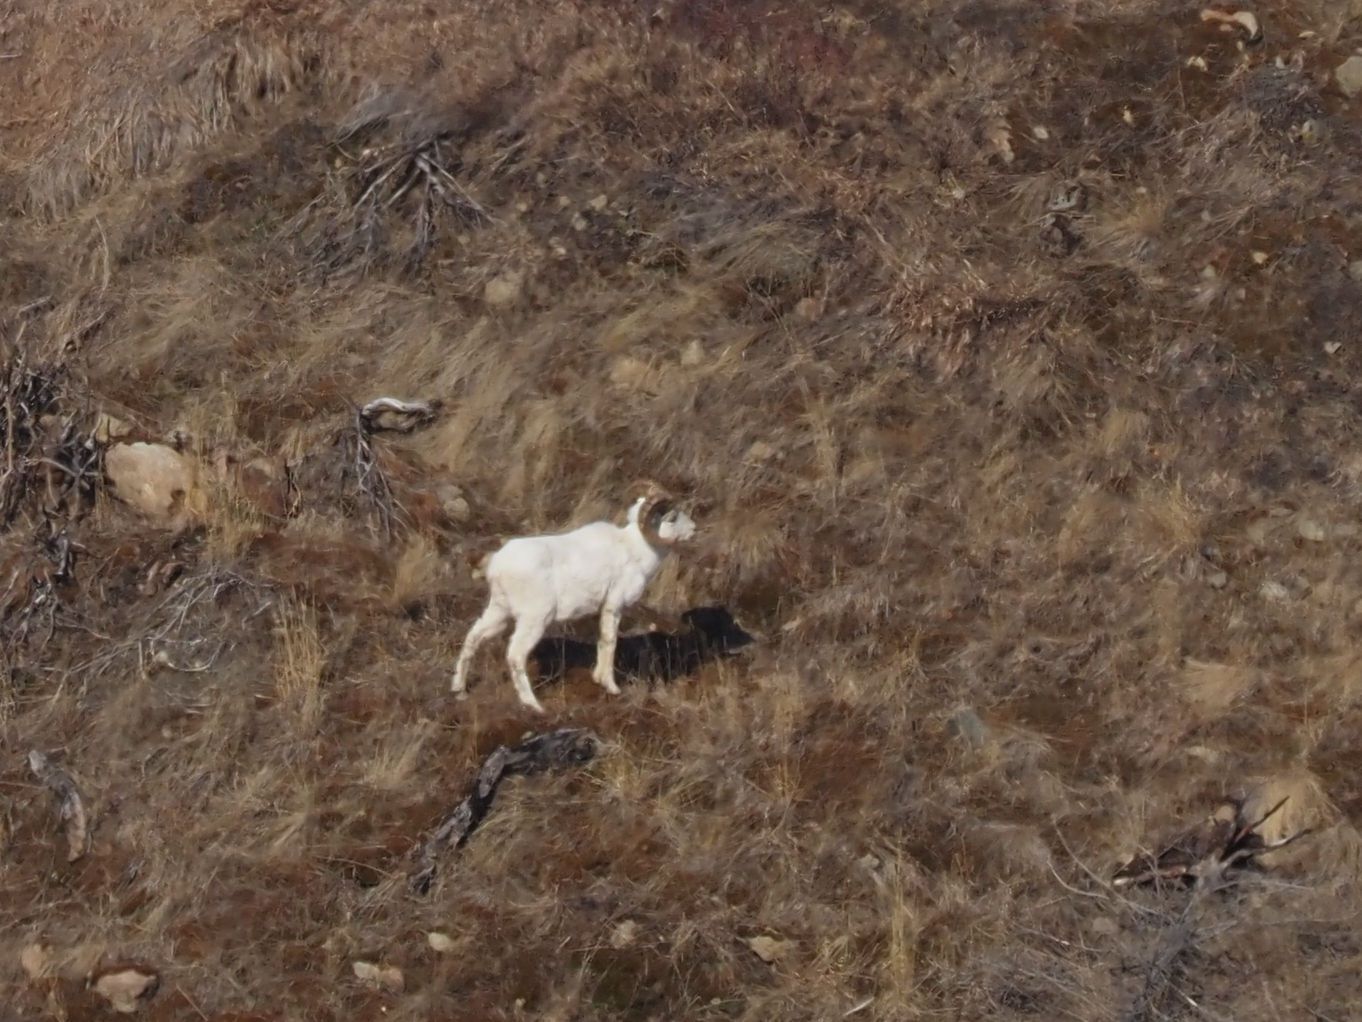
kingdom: Animalia
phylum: Chordata
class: Mammalia
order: Artiodactyla
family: Bovidae
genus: Ovis
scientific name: Ovis dalli
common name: Dall's sheep
